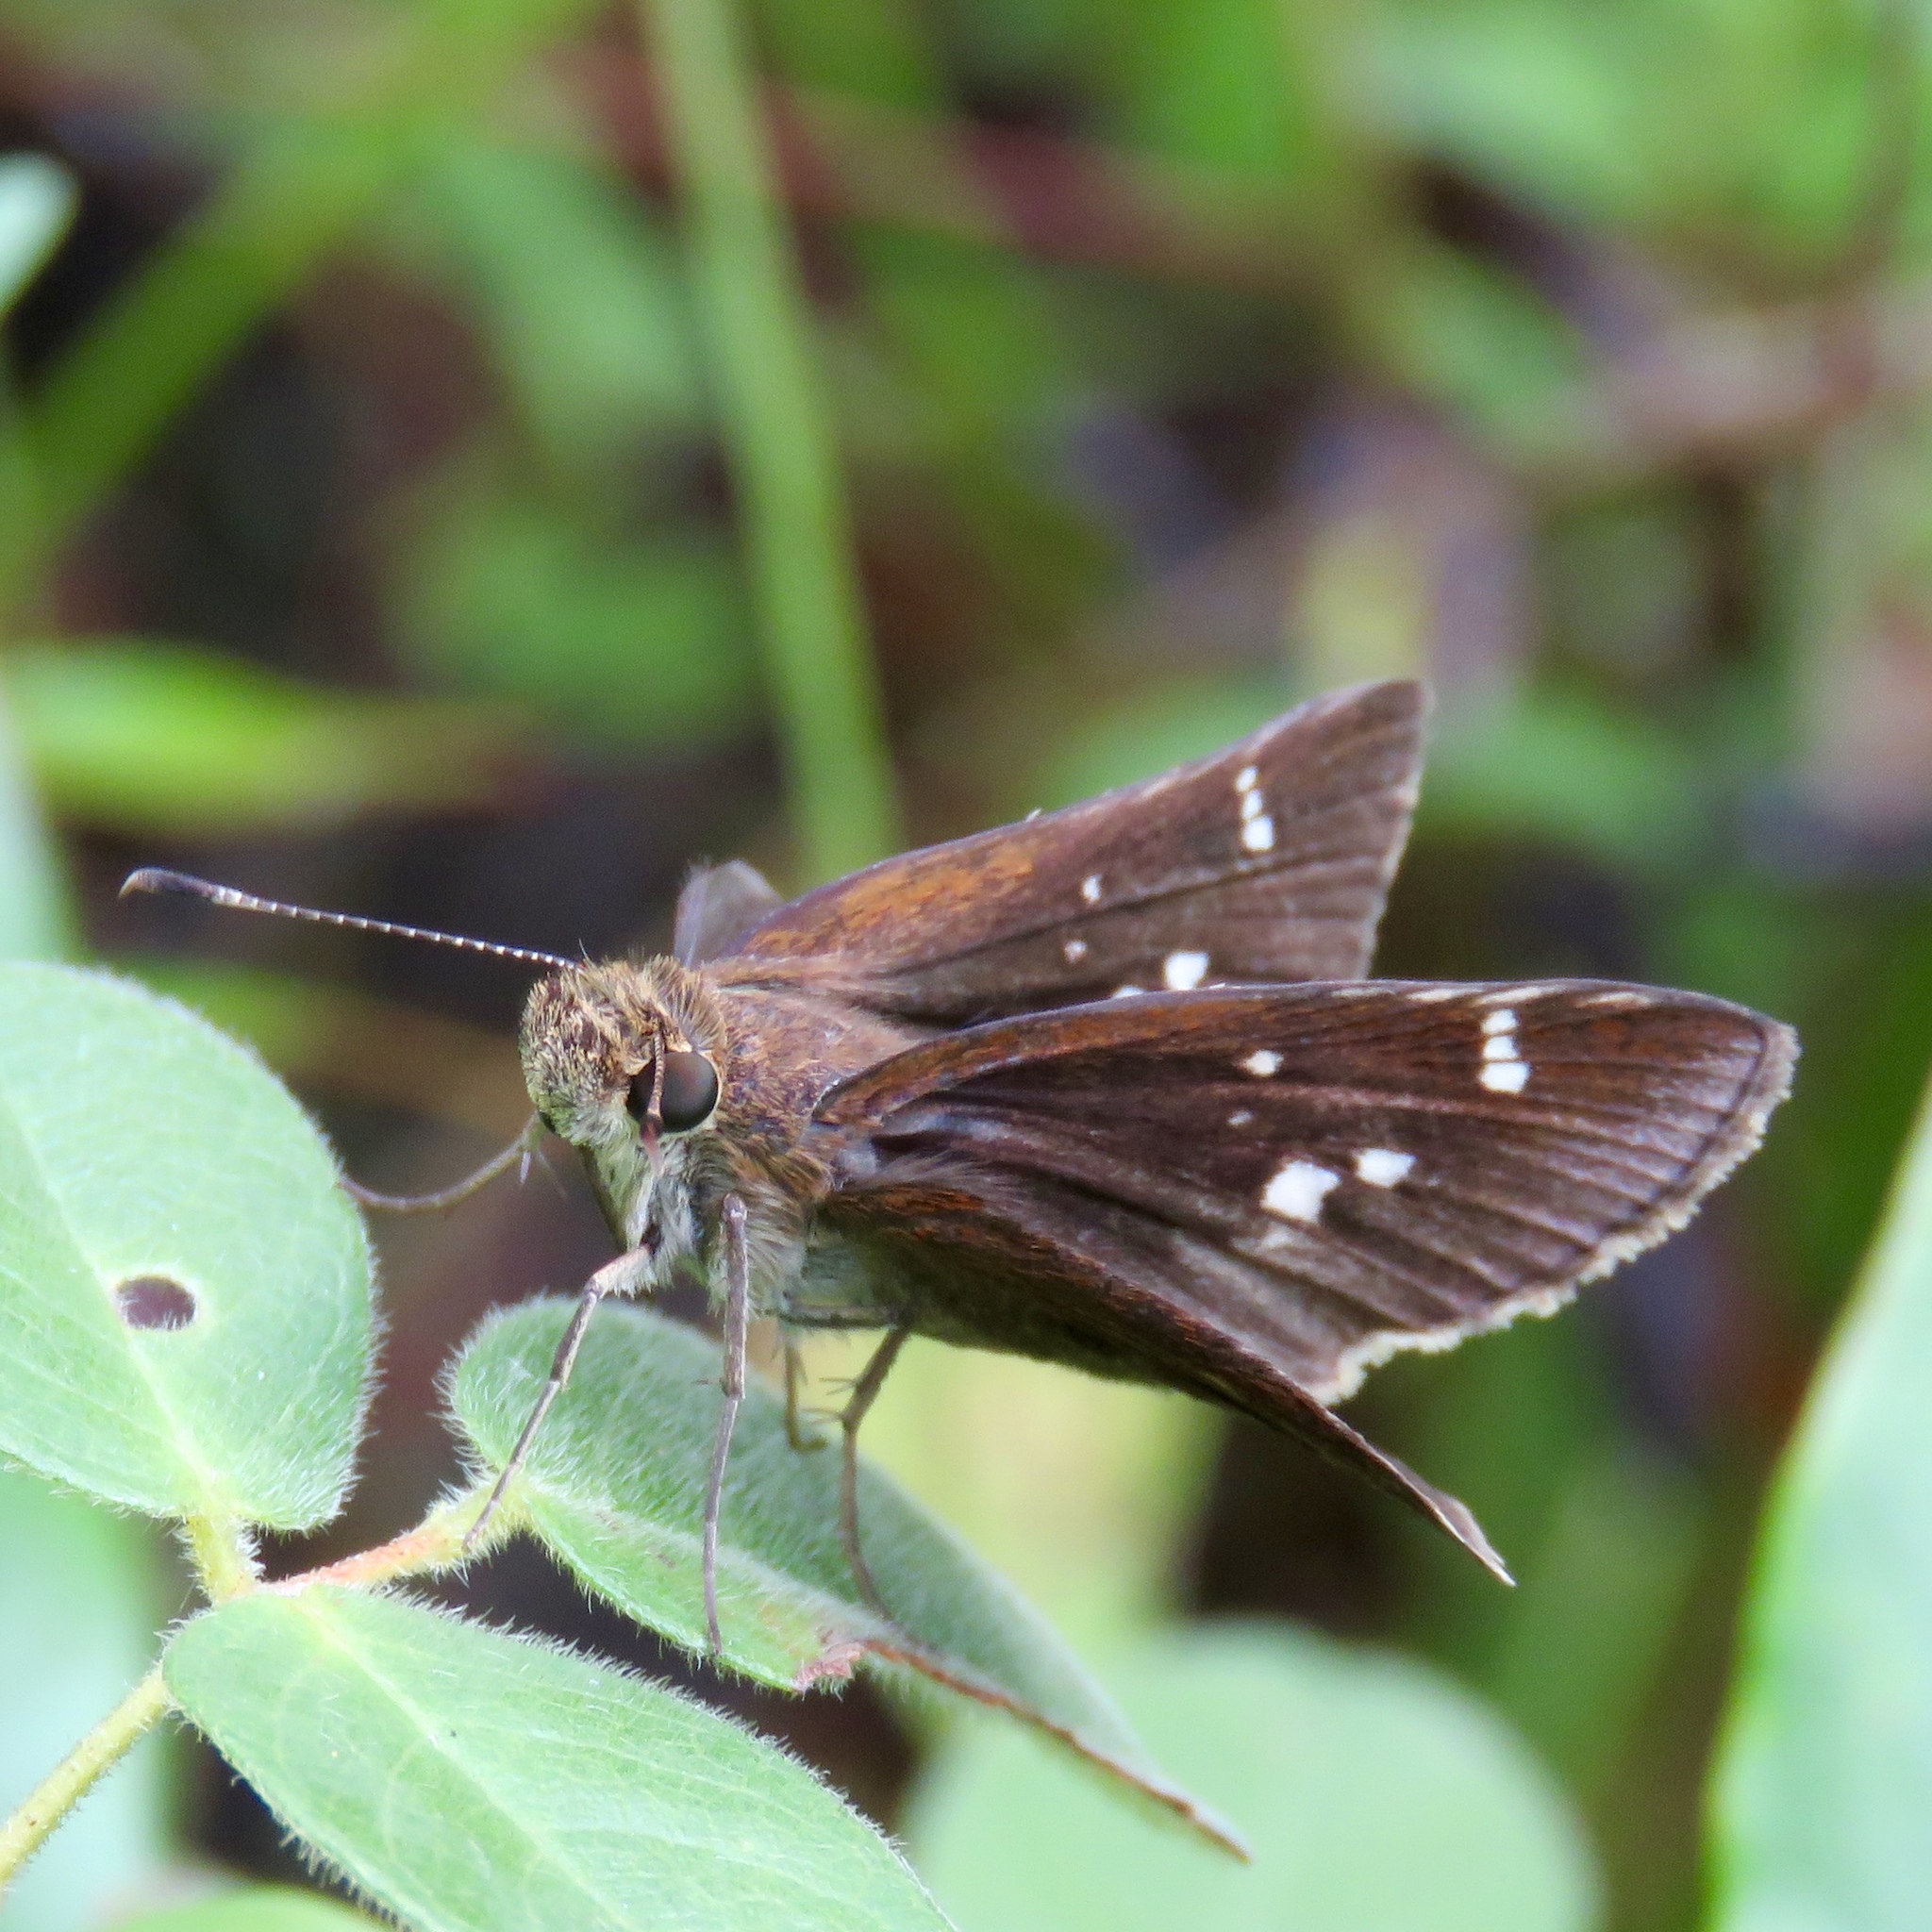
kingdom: Animalia
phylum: Arthropoda
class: Insecta
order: Lepidoptera
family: Hesperiidae
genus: Lerema
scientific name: Lerema accius
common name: Clouded skipper
